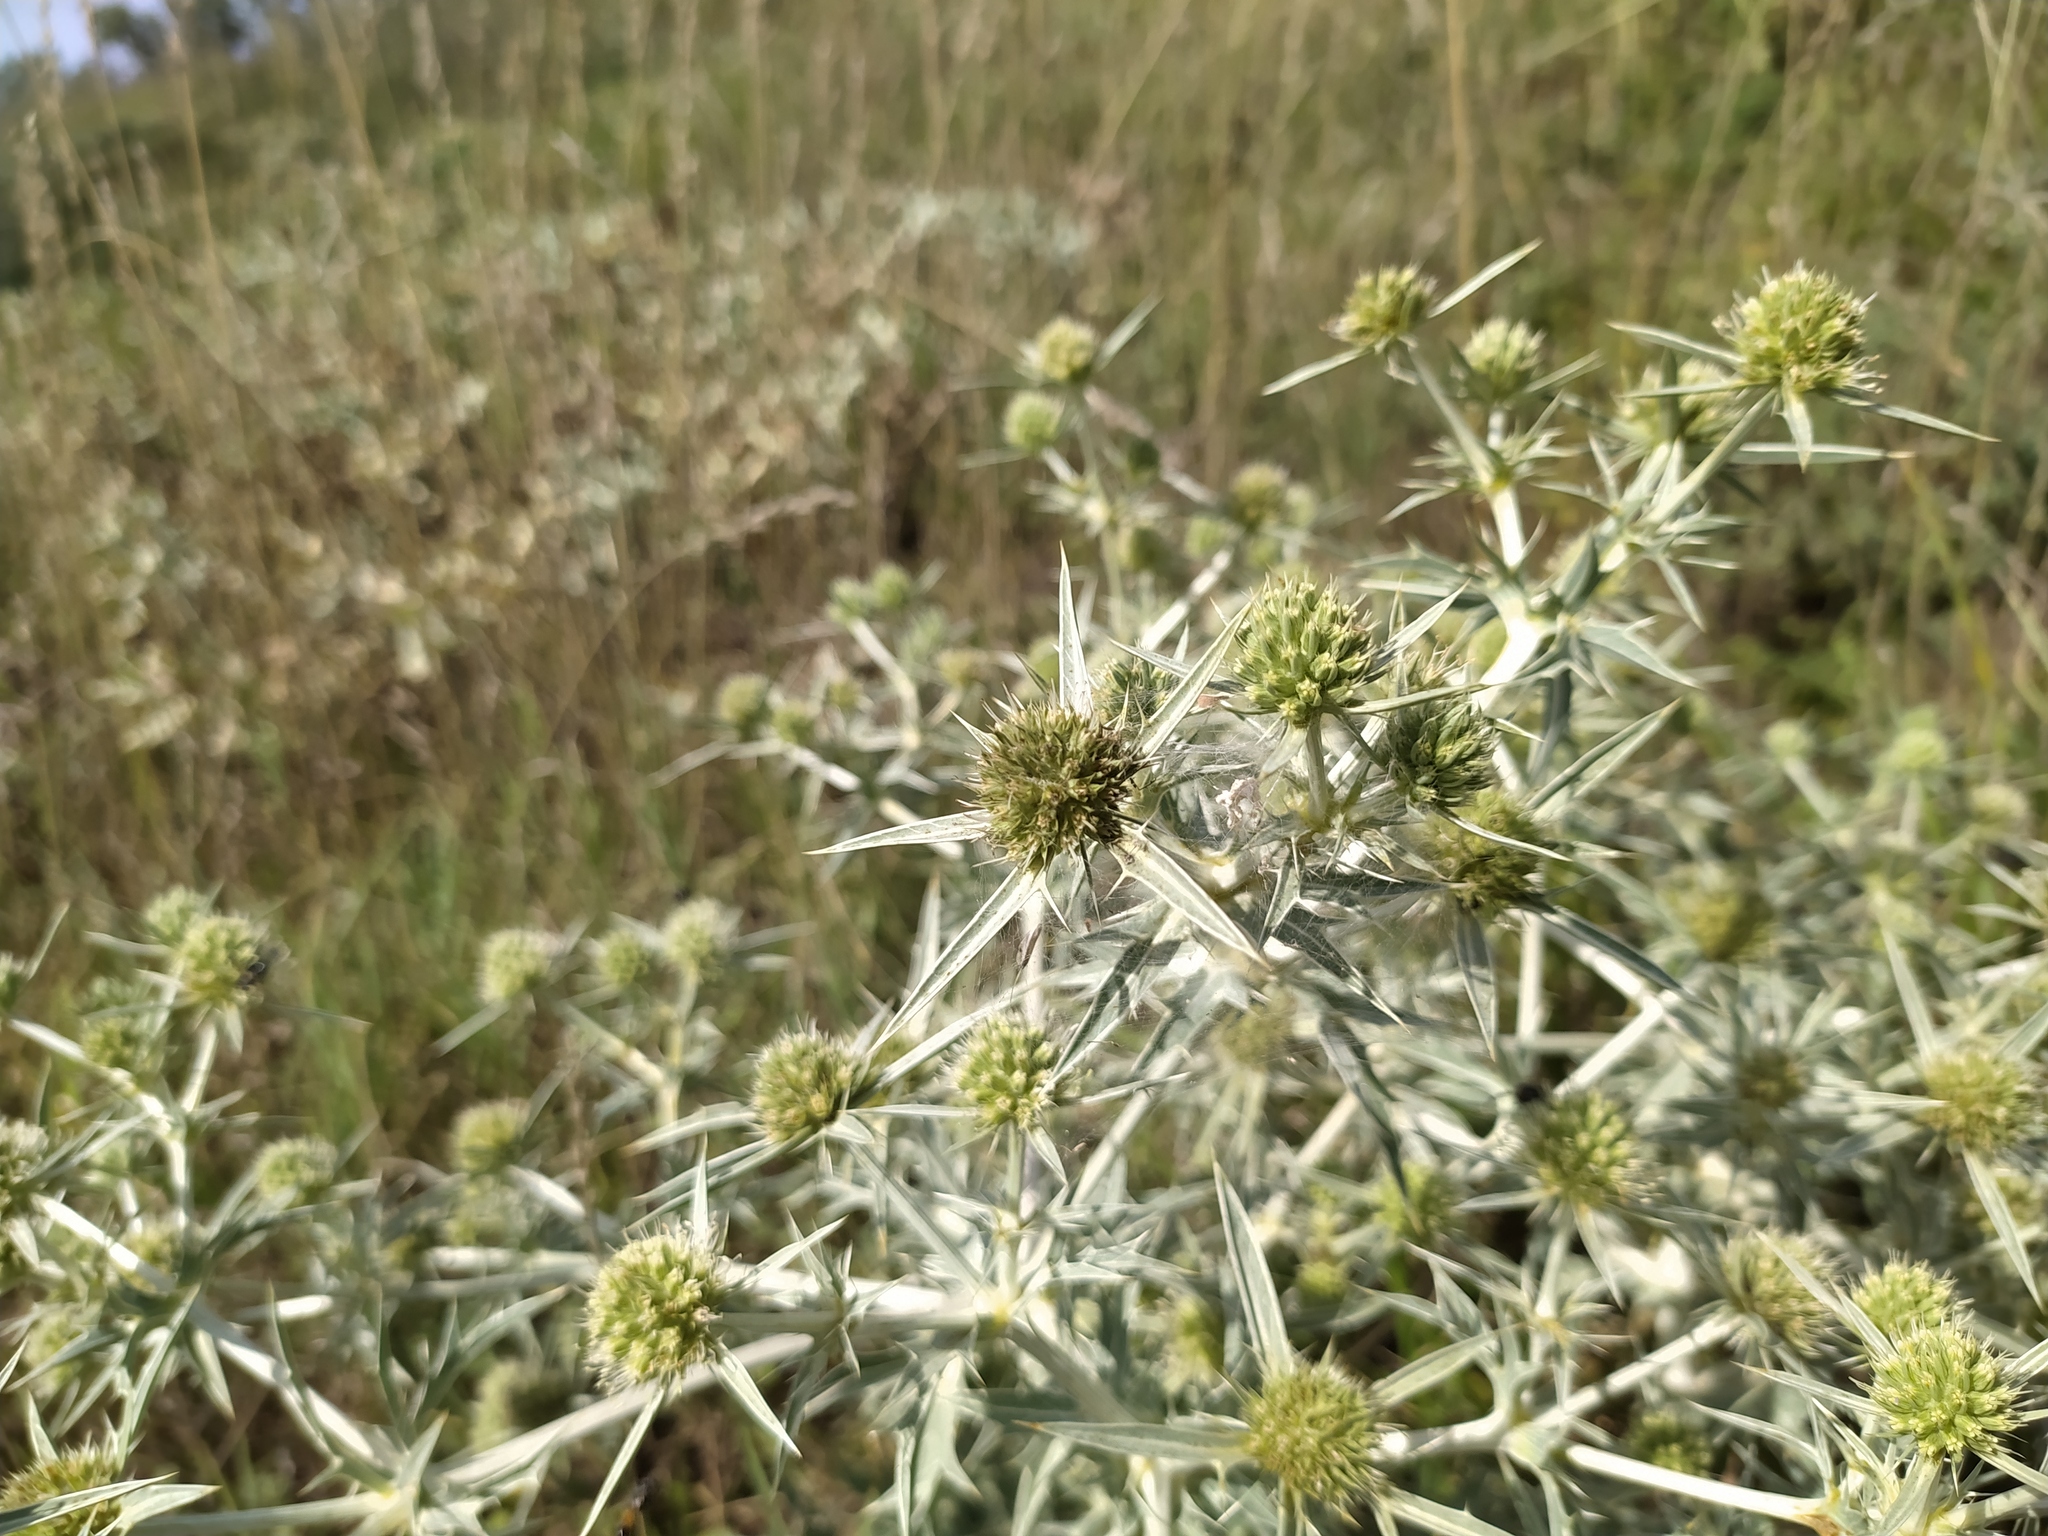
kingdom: Plantae
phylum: Tracheophyta
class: Magnoliopsida
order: Apiales
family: Apiaceae
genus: Eryngium
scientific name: Eryngium campestre
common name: Field eryngo
